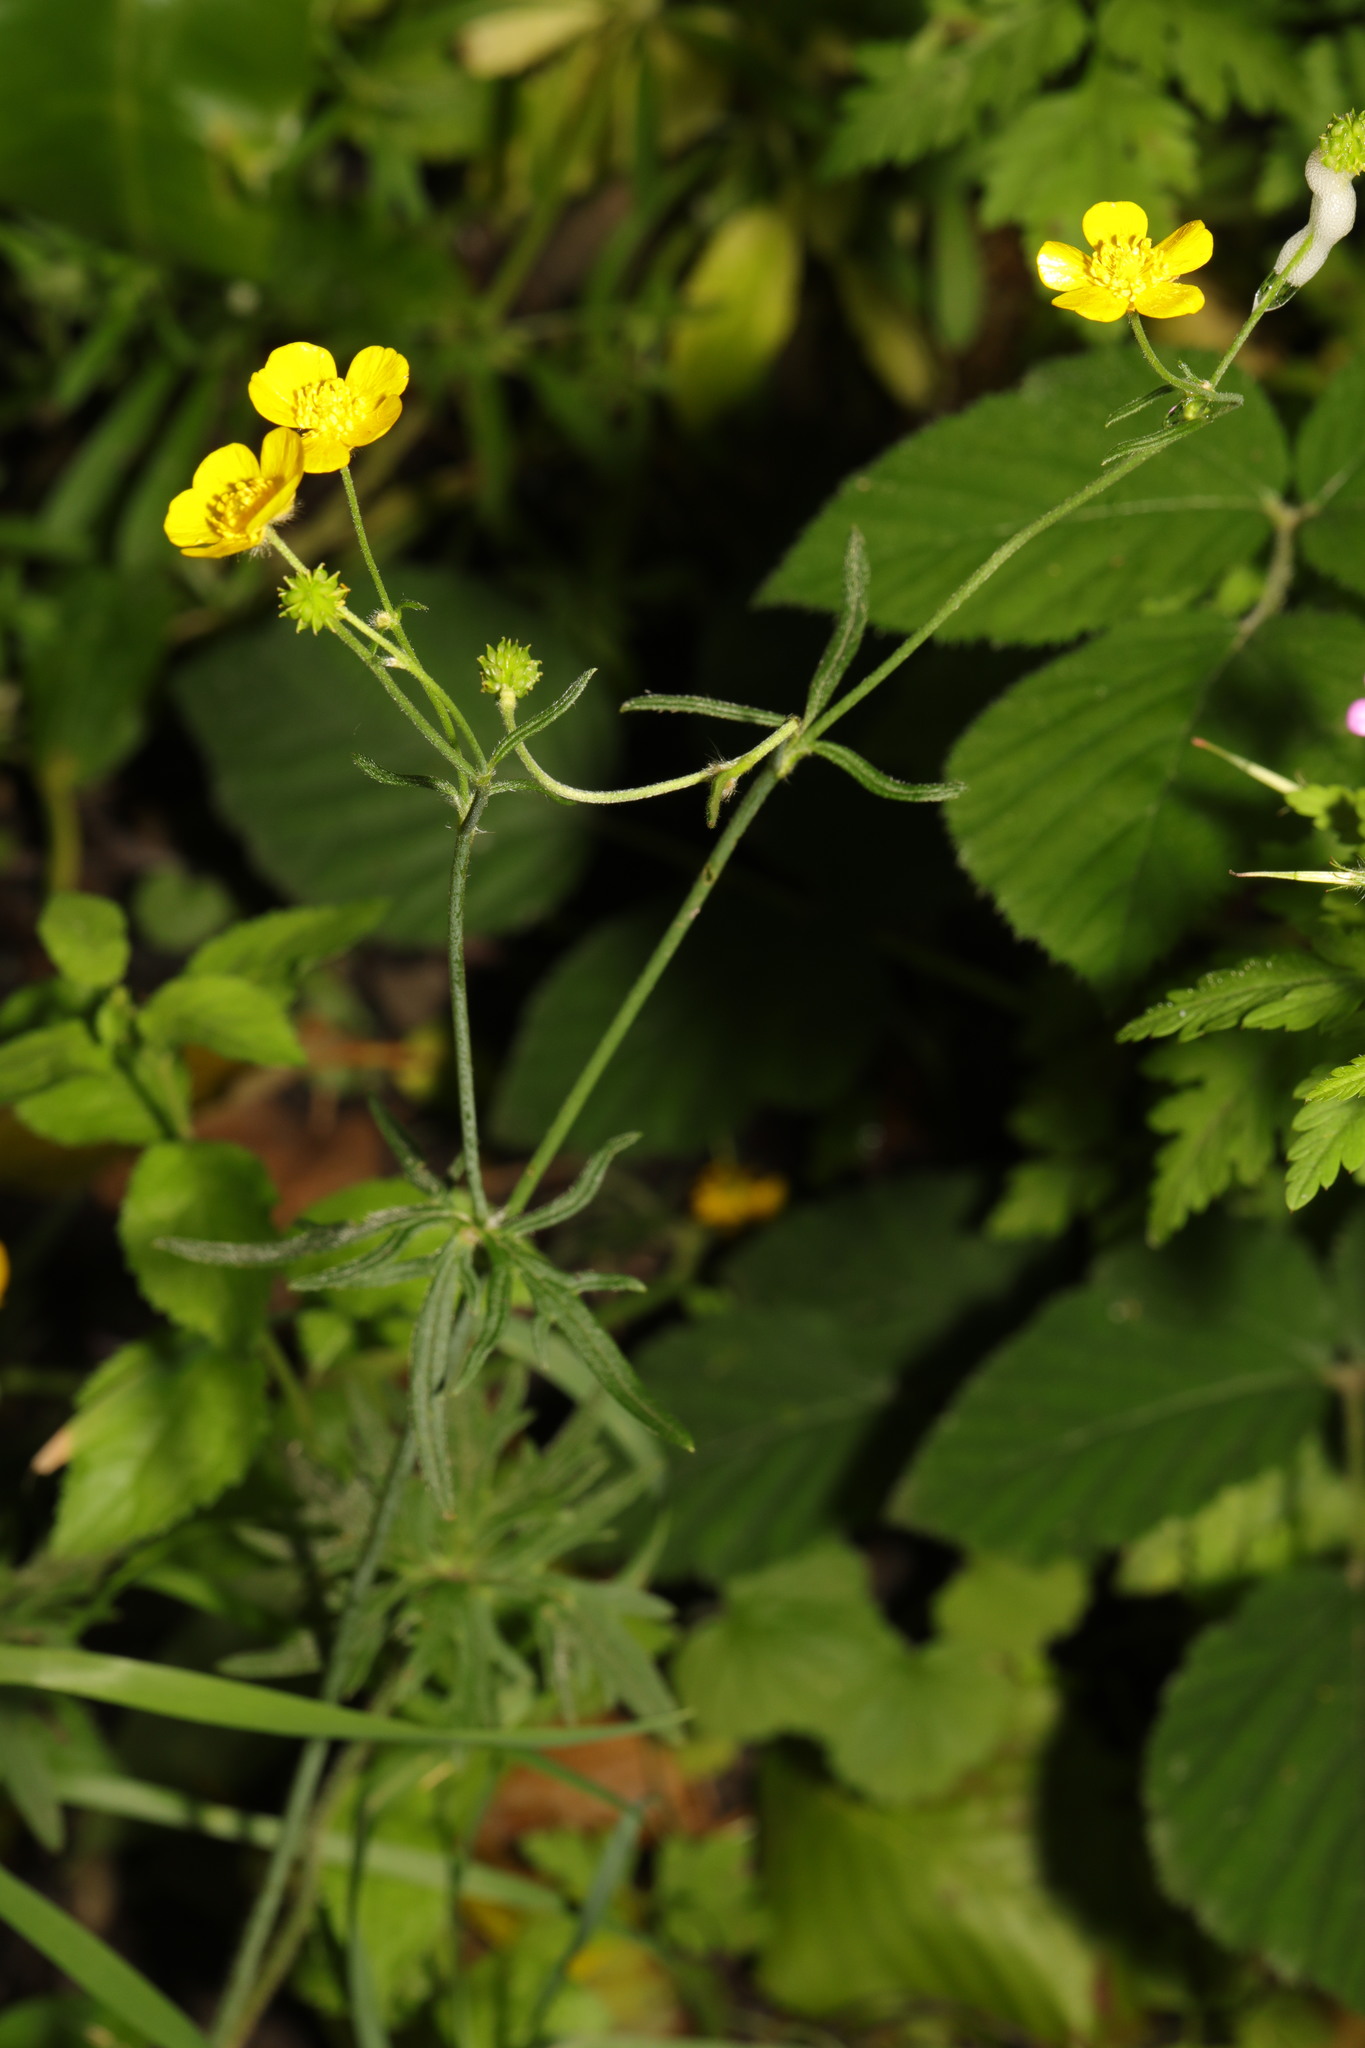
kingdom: Plantae
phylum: Tracheophyta
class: Magnoliopsida
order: Ranunculales
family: Ranunculaceae
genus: Ranunculus
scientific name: Ranunculus acris
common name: Meadow buttercup
